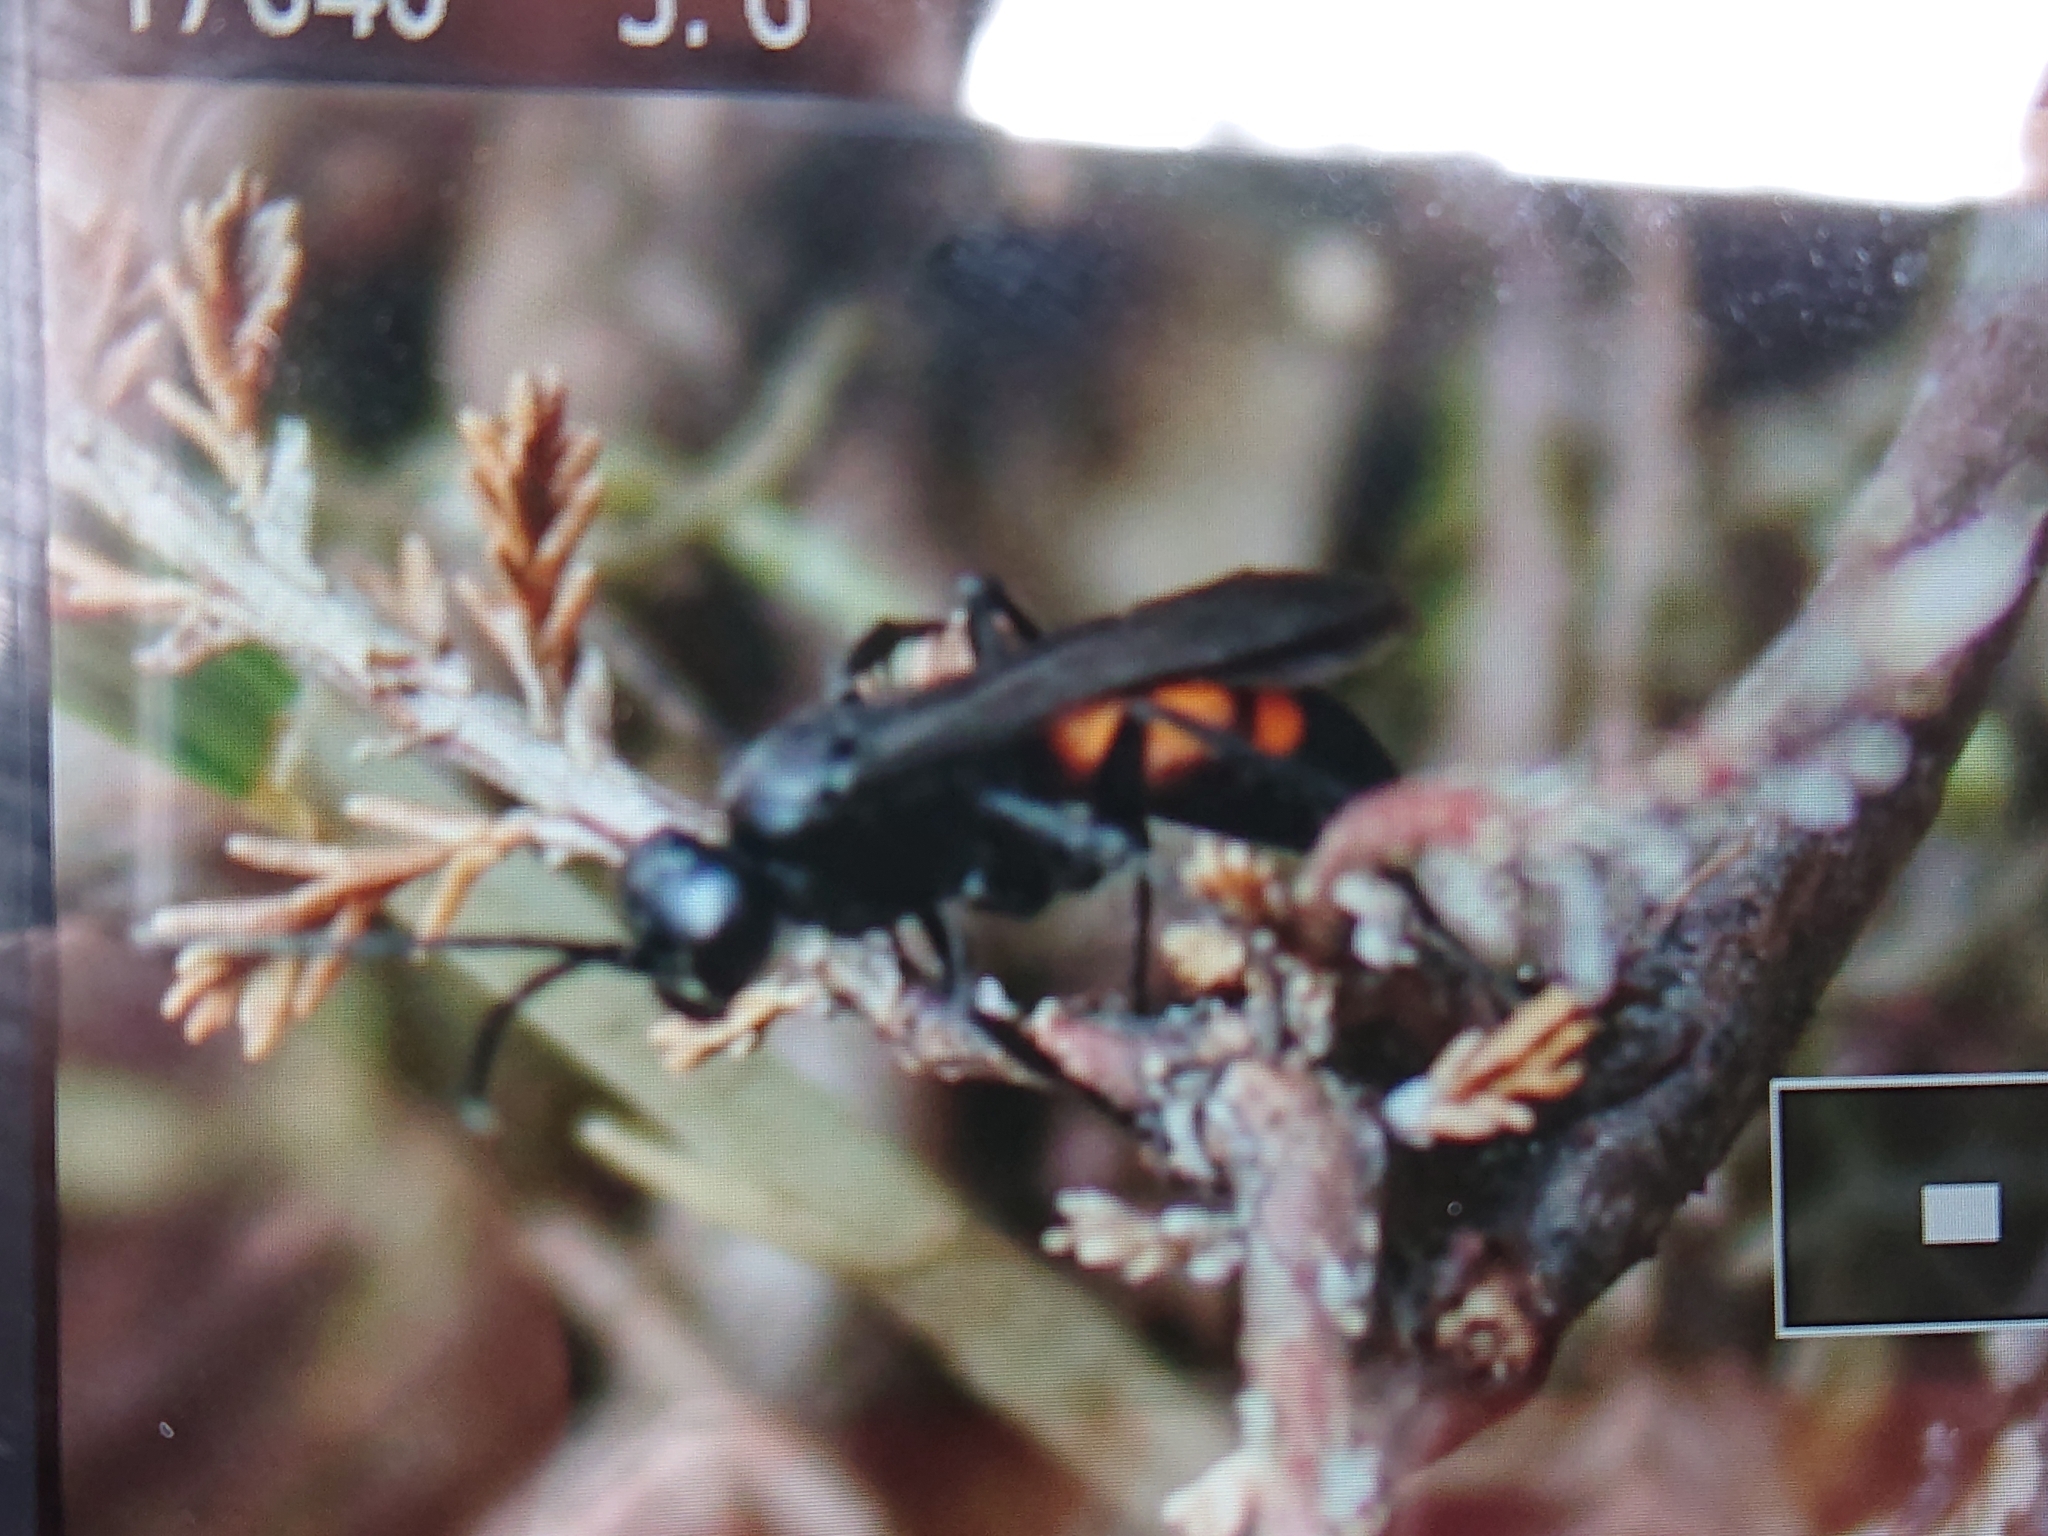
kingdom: Animalia
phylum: Arthropoda
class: Insecta
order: Hymenoptera
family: Pompilidae
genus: Anoplius
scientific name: Anoplius viaticus
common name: Black banded spider wasp
